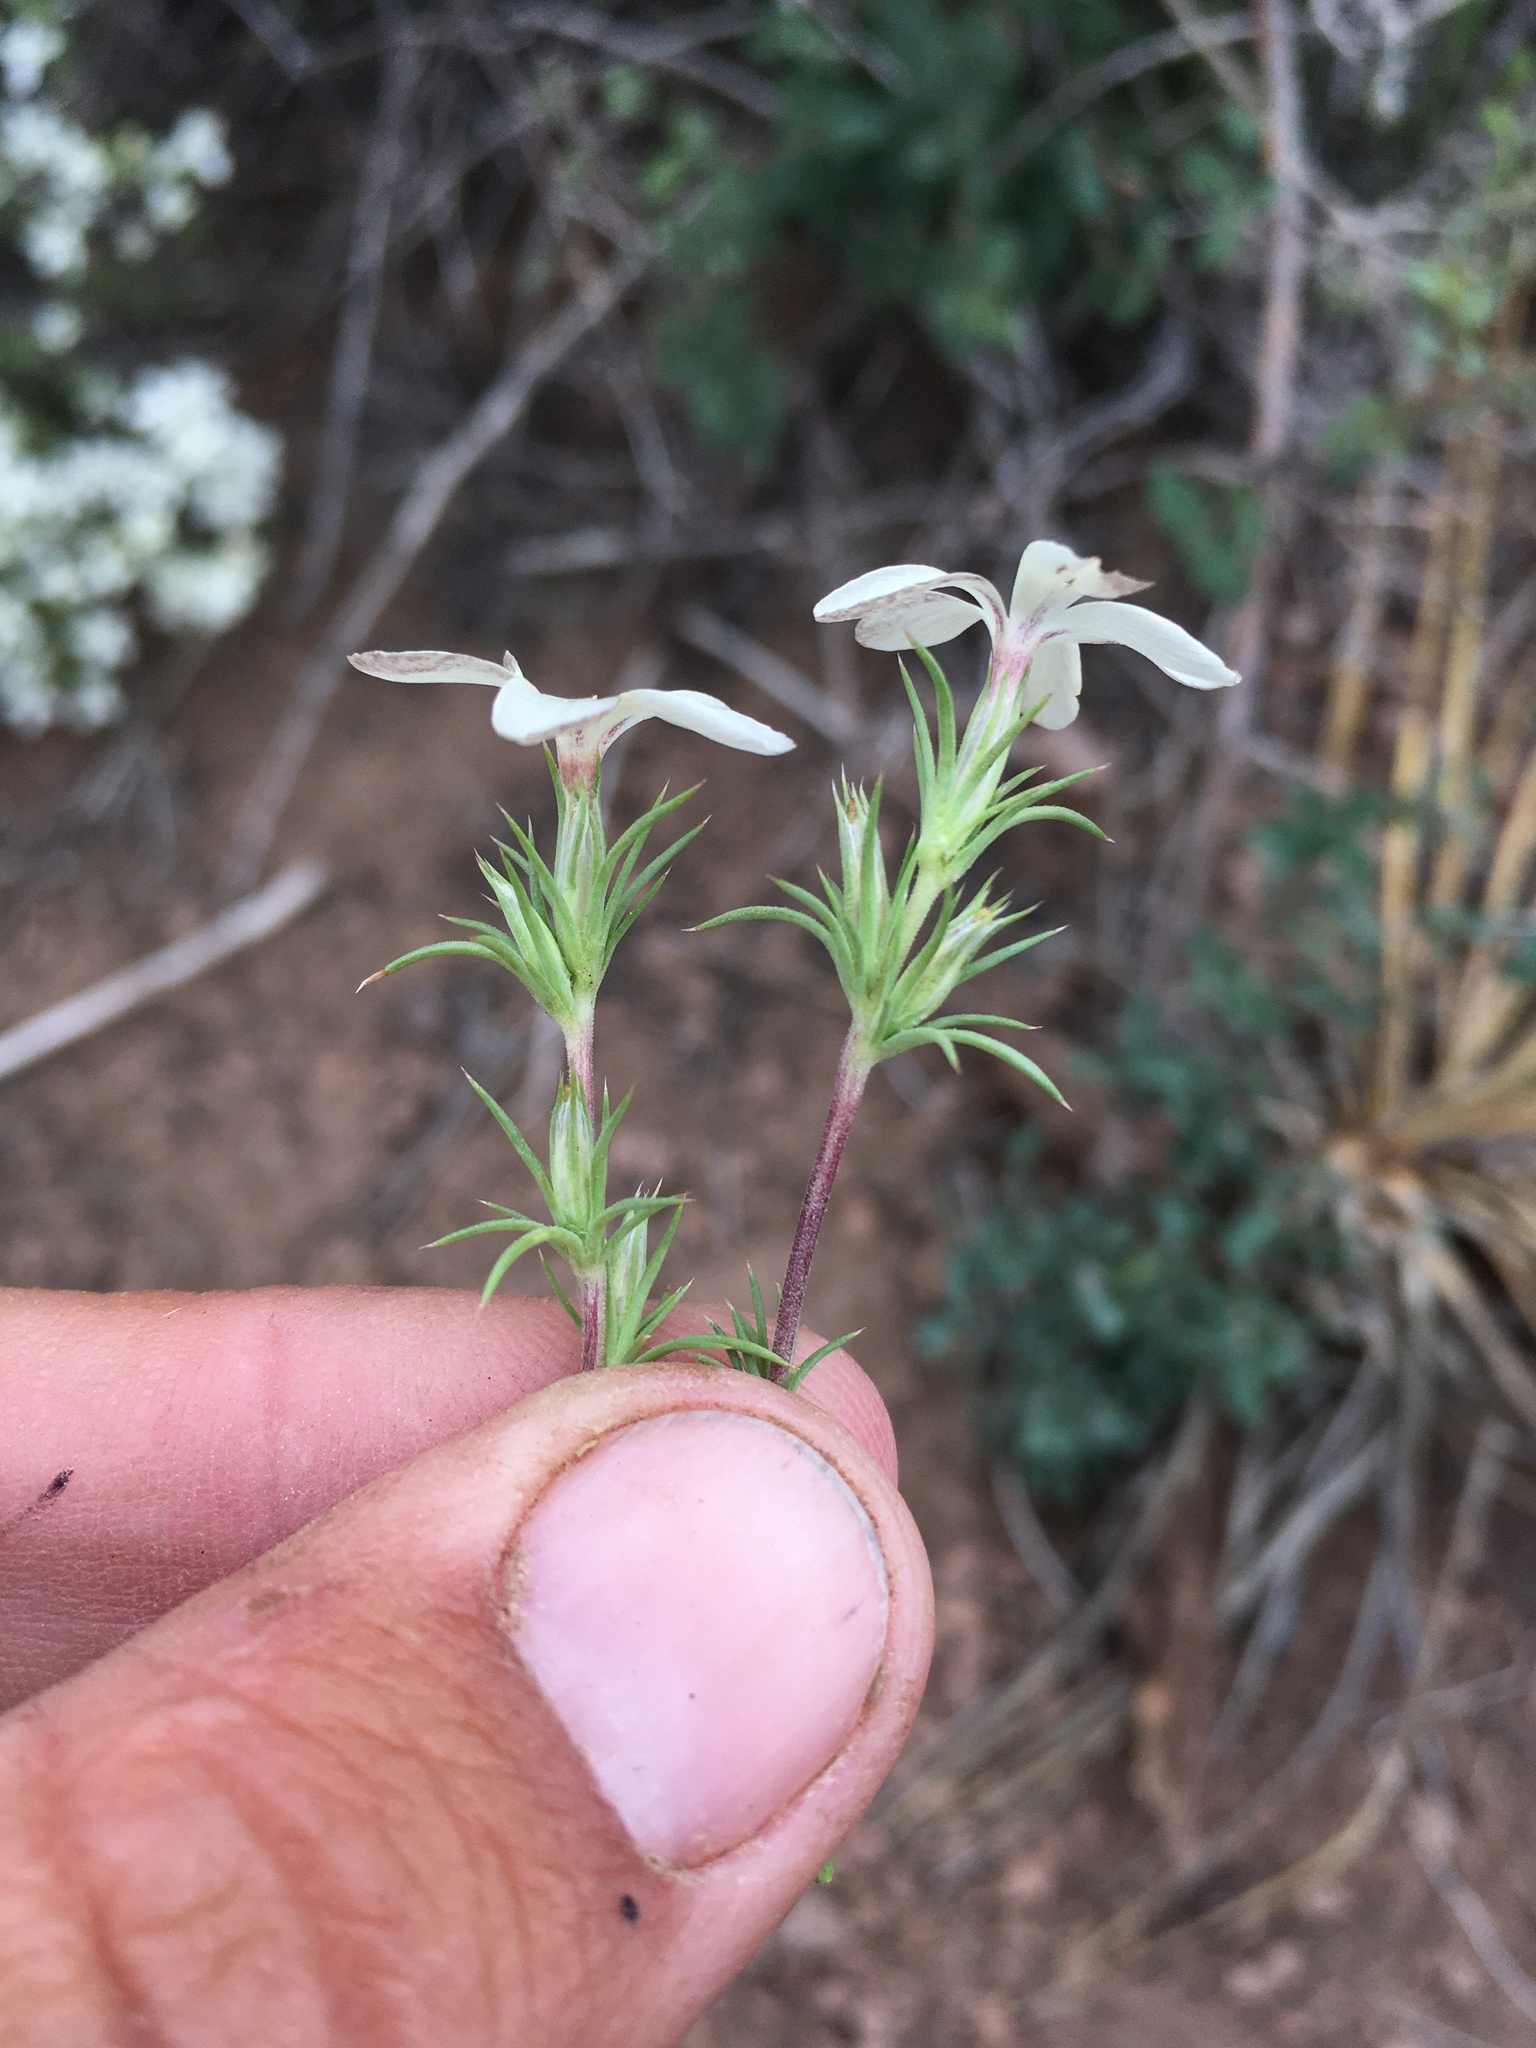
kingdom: Plantae
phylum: Tracheophyta
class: Magnoliopsida
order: Ericales
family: Polemoniaceae
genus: Linanthus
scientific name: Linanthus pungens
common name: Granite prickly phlox
